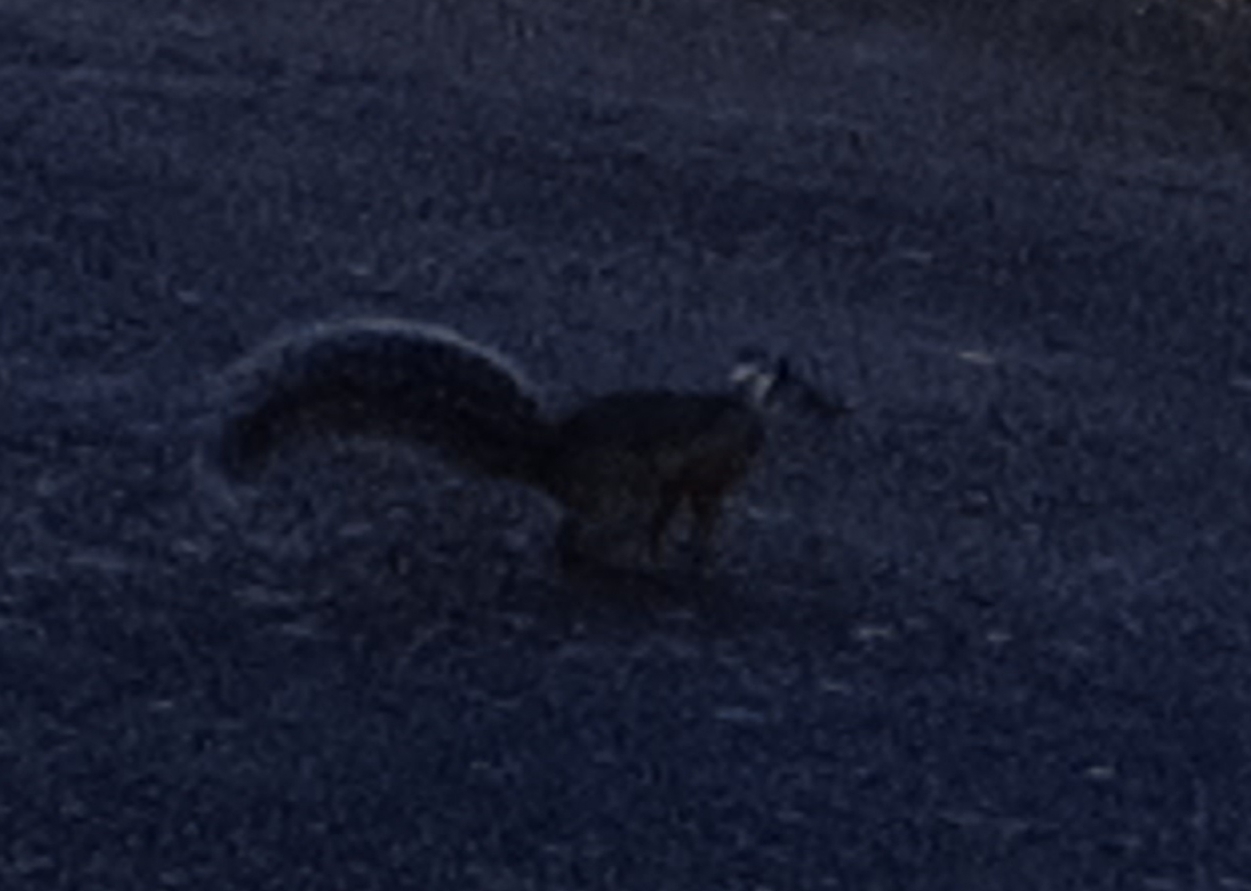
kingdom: Animalia
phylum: Chordata
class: Mammalia
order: Rodentia
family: Sciuridae
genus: Sciurus
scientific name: Sciurus variegatoides
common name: Variegated squirrel
